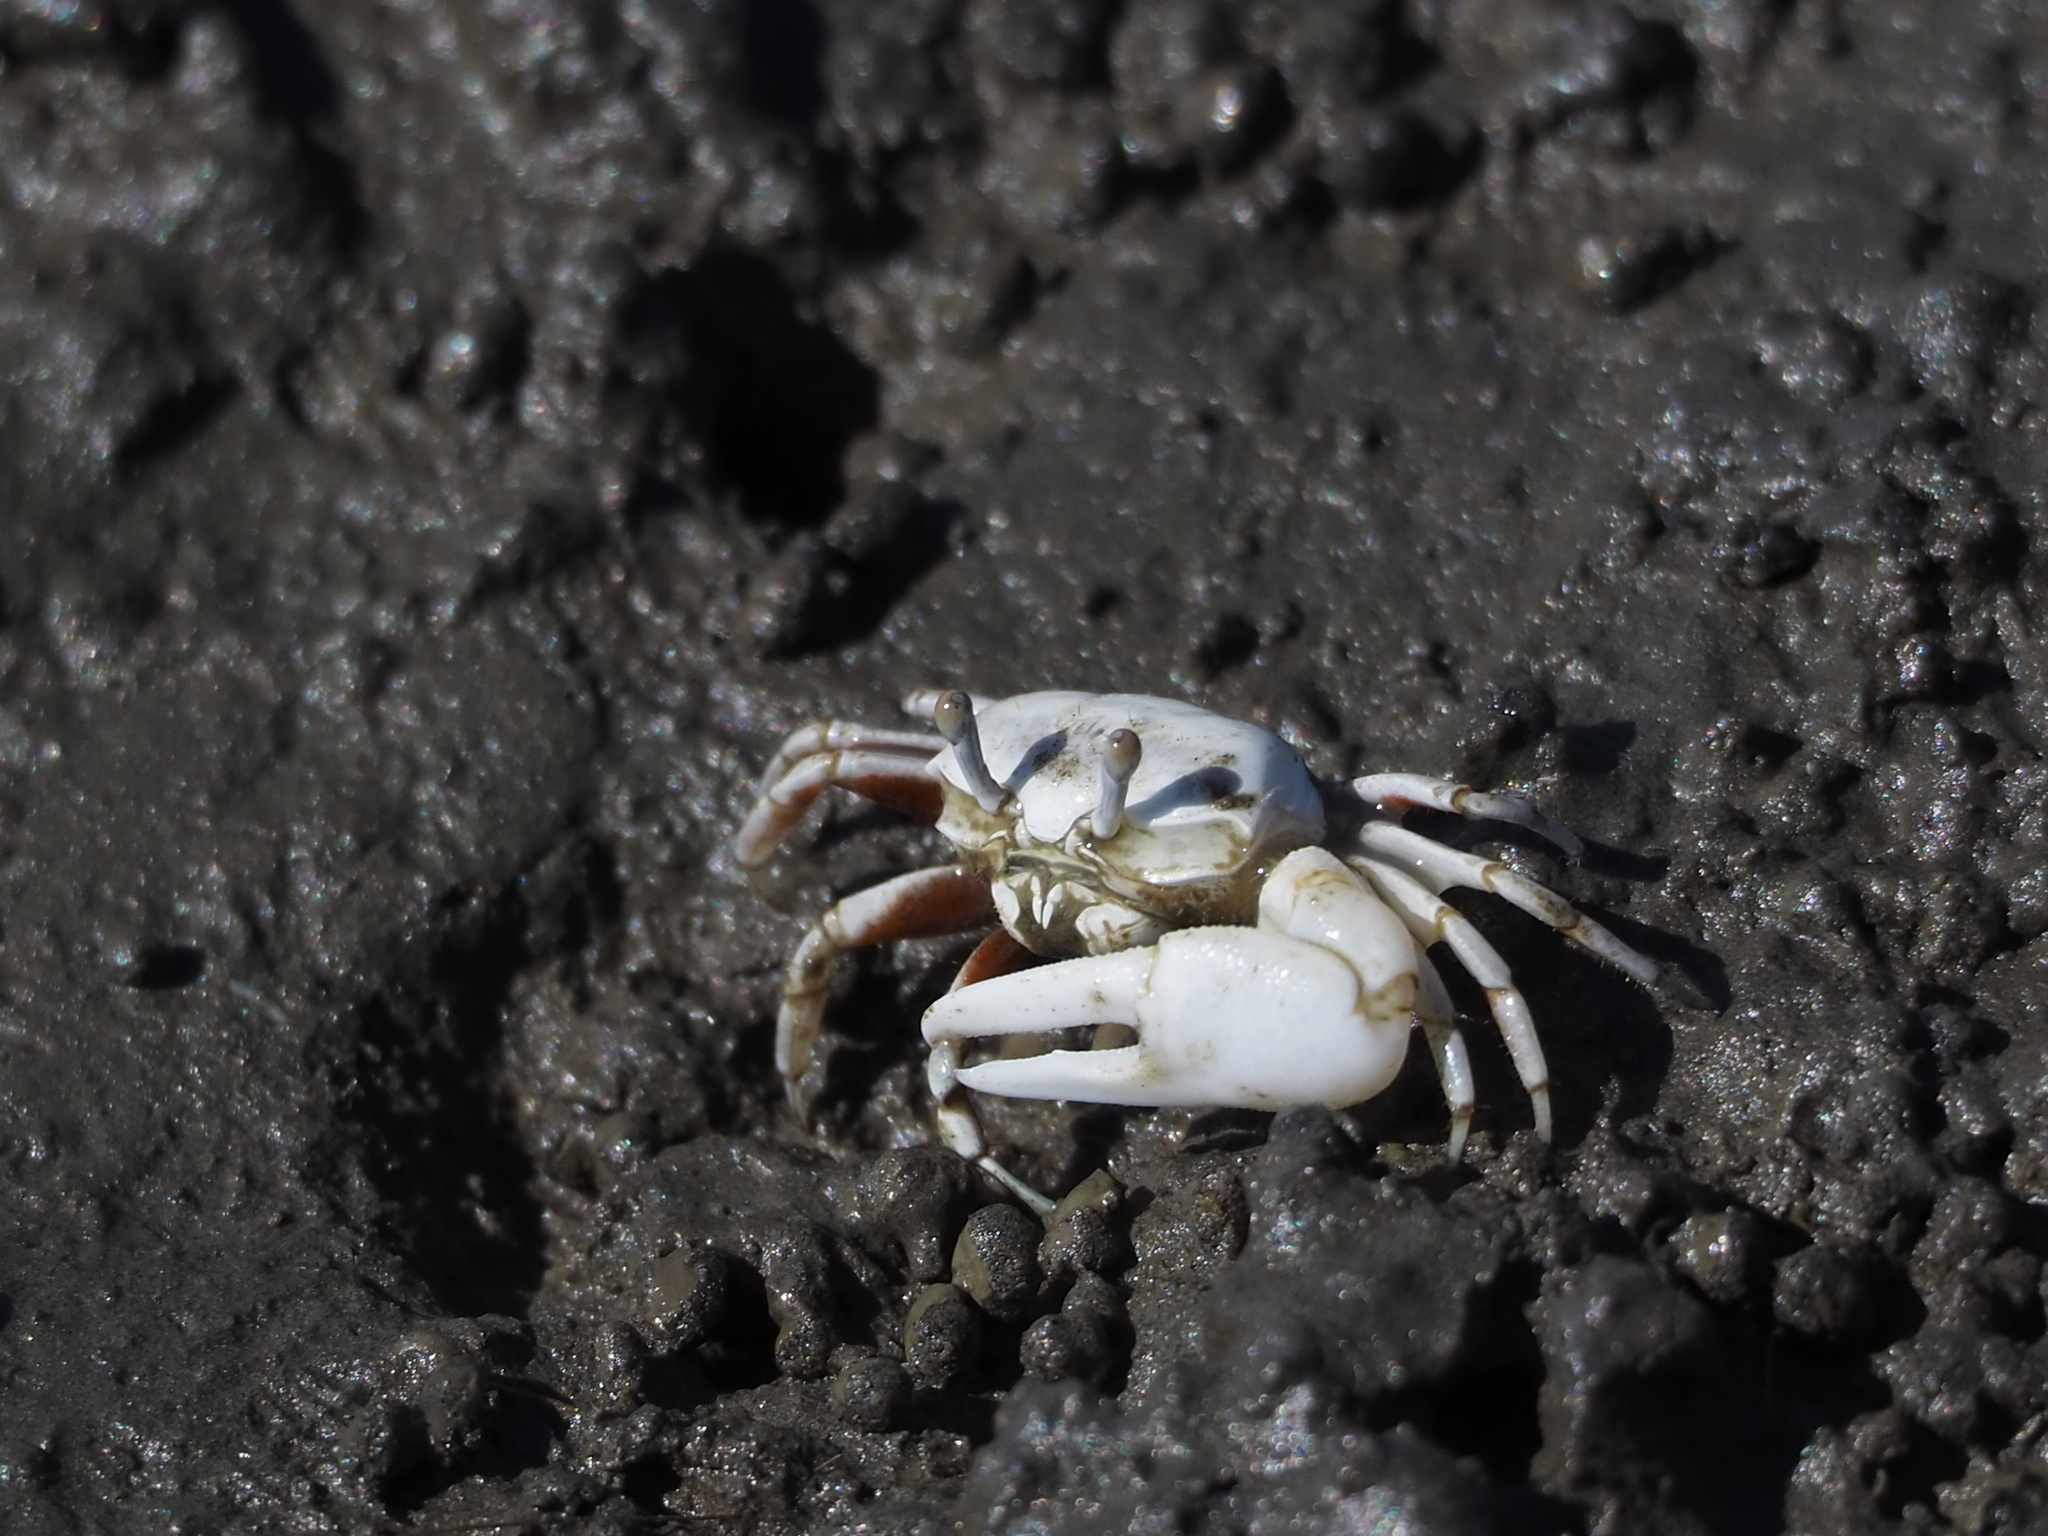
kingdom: Animalia
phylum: Arthropoda
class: Malacostraca
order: Decapoda
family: Ocypodidae
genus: Austruca
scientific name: Austruca lactea
